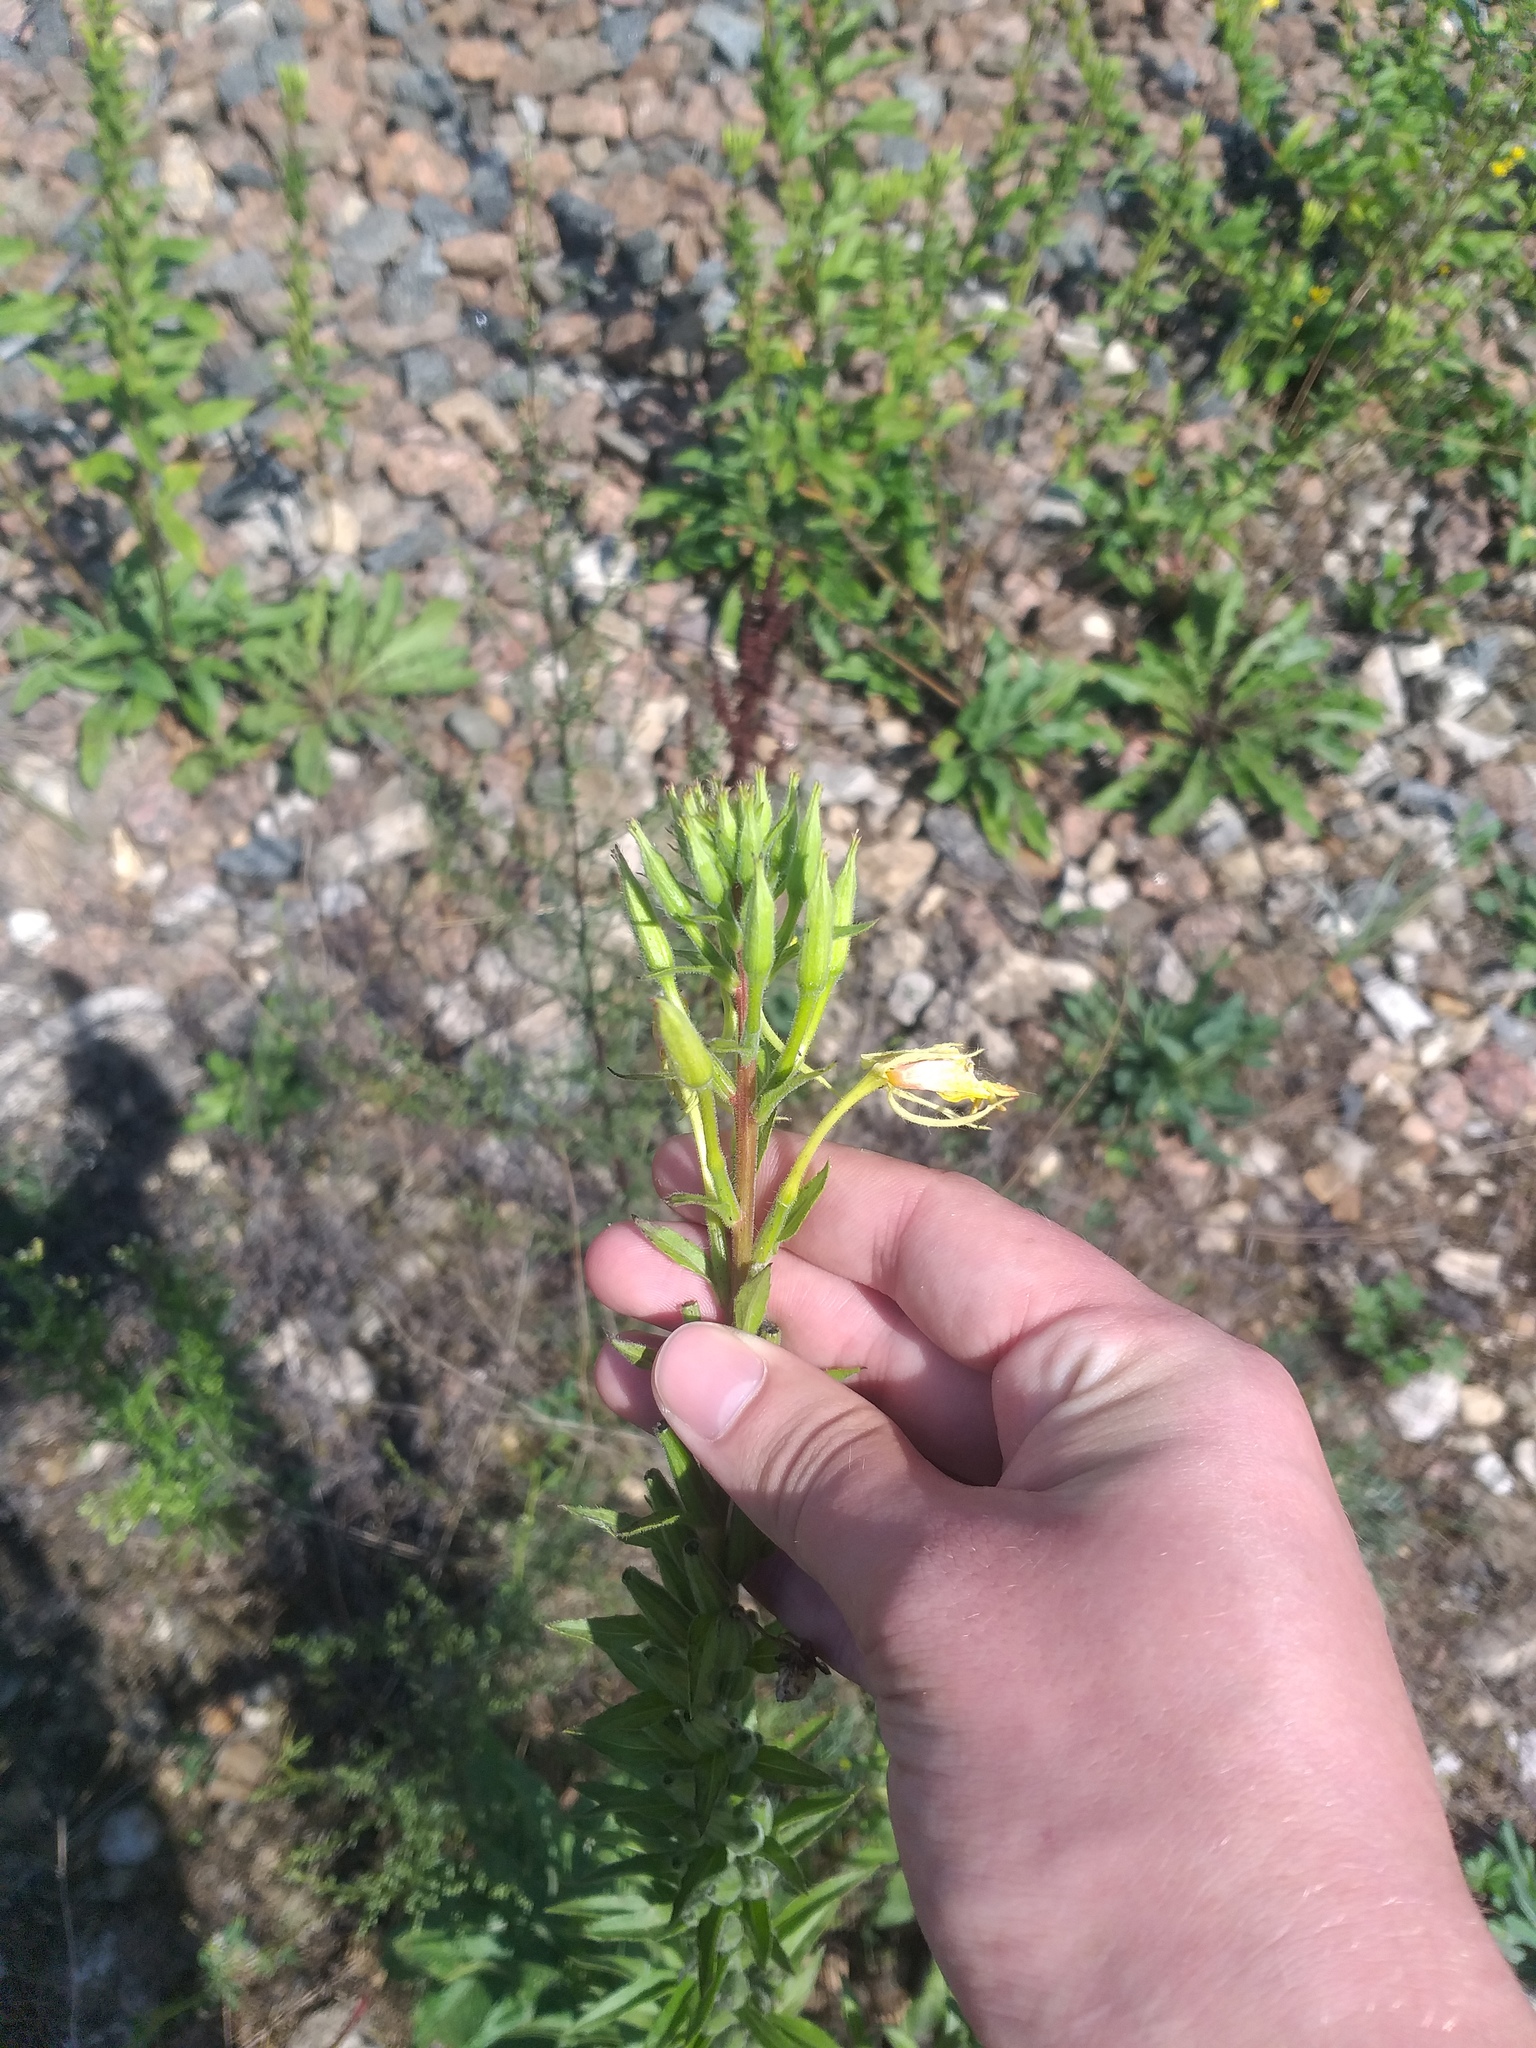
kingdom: Plantae
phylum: Tracheophyta
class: Magnoliopsida
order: Myrtales
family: Onagraceae
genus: Oenothera
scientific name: Oenothera rubricaulis
